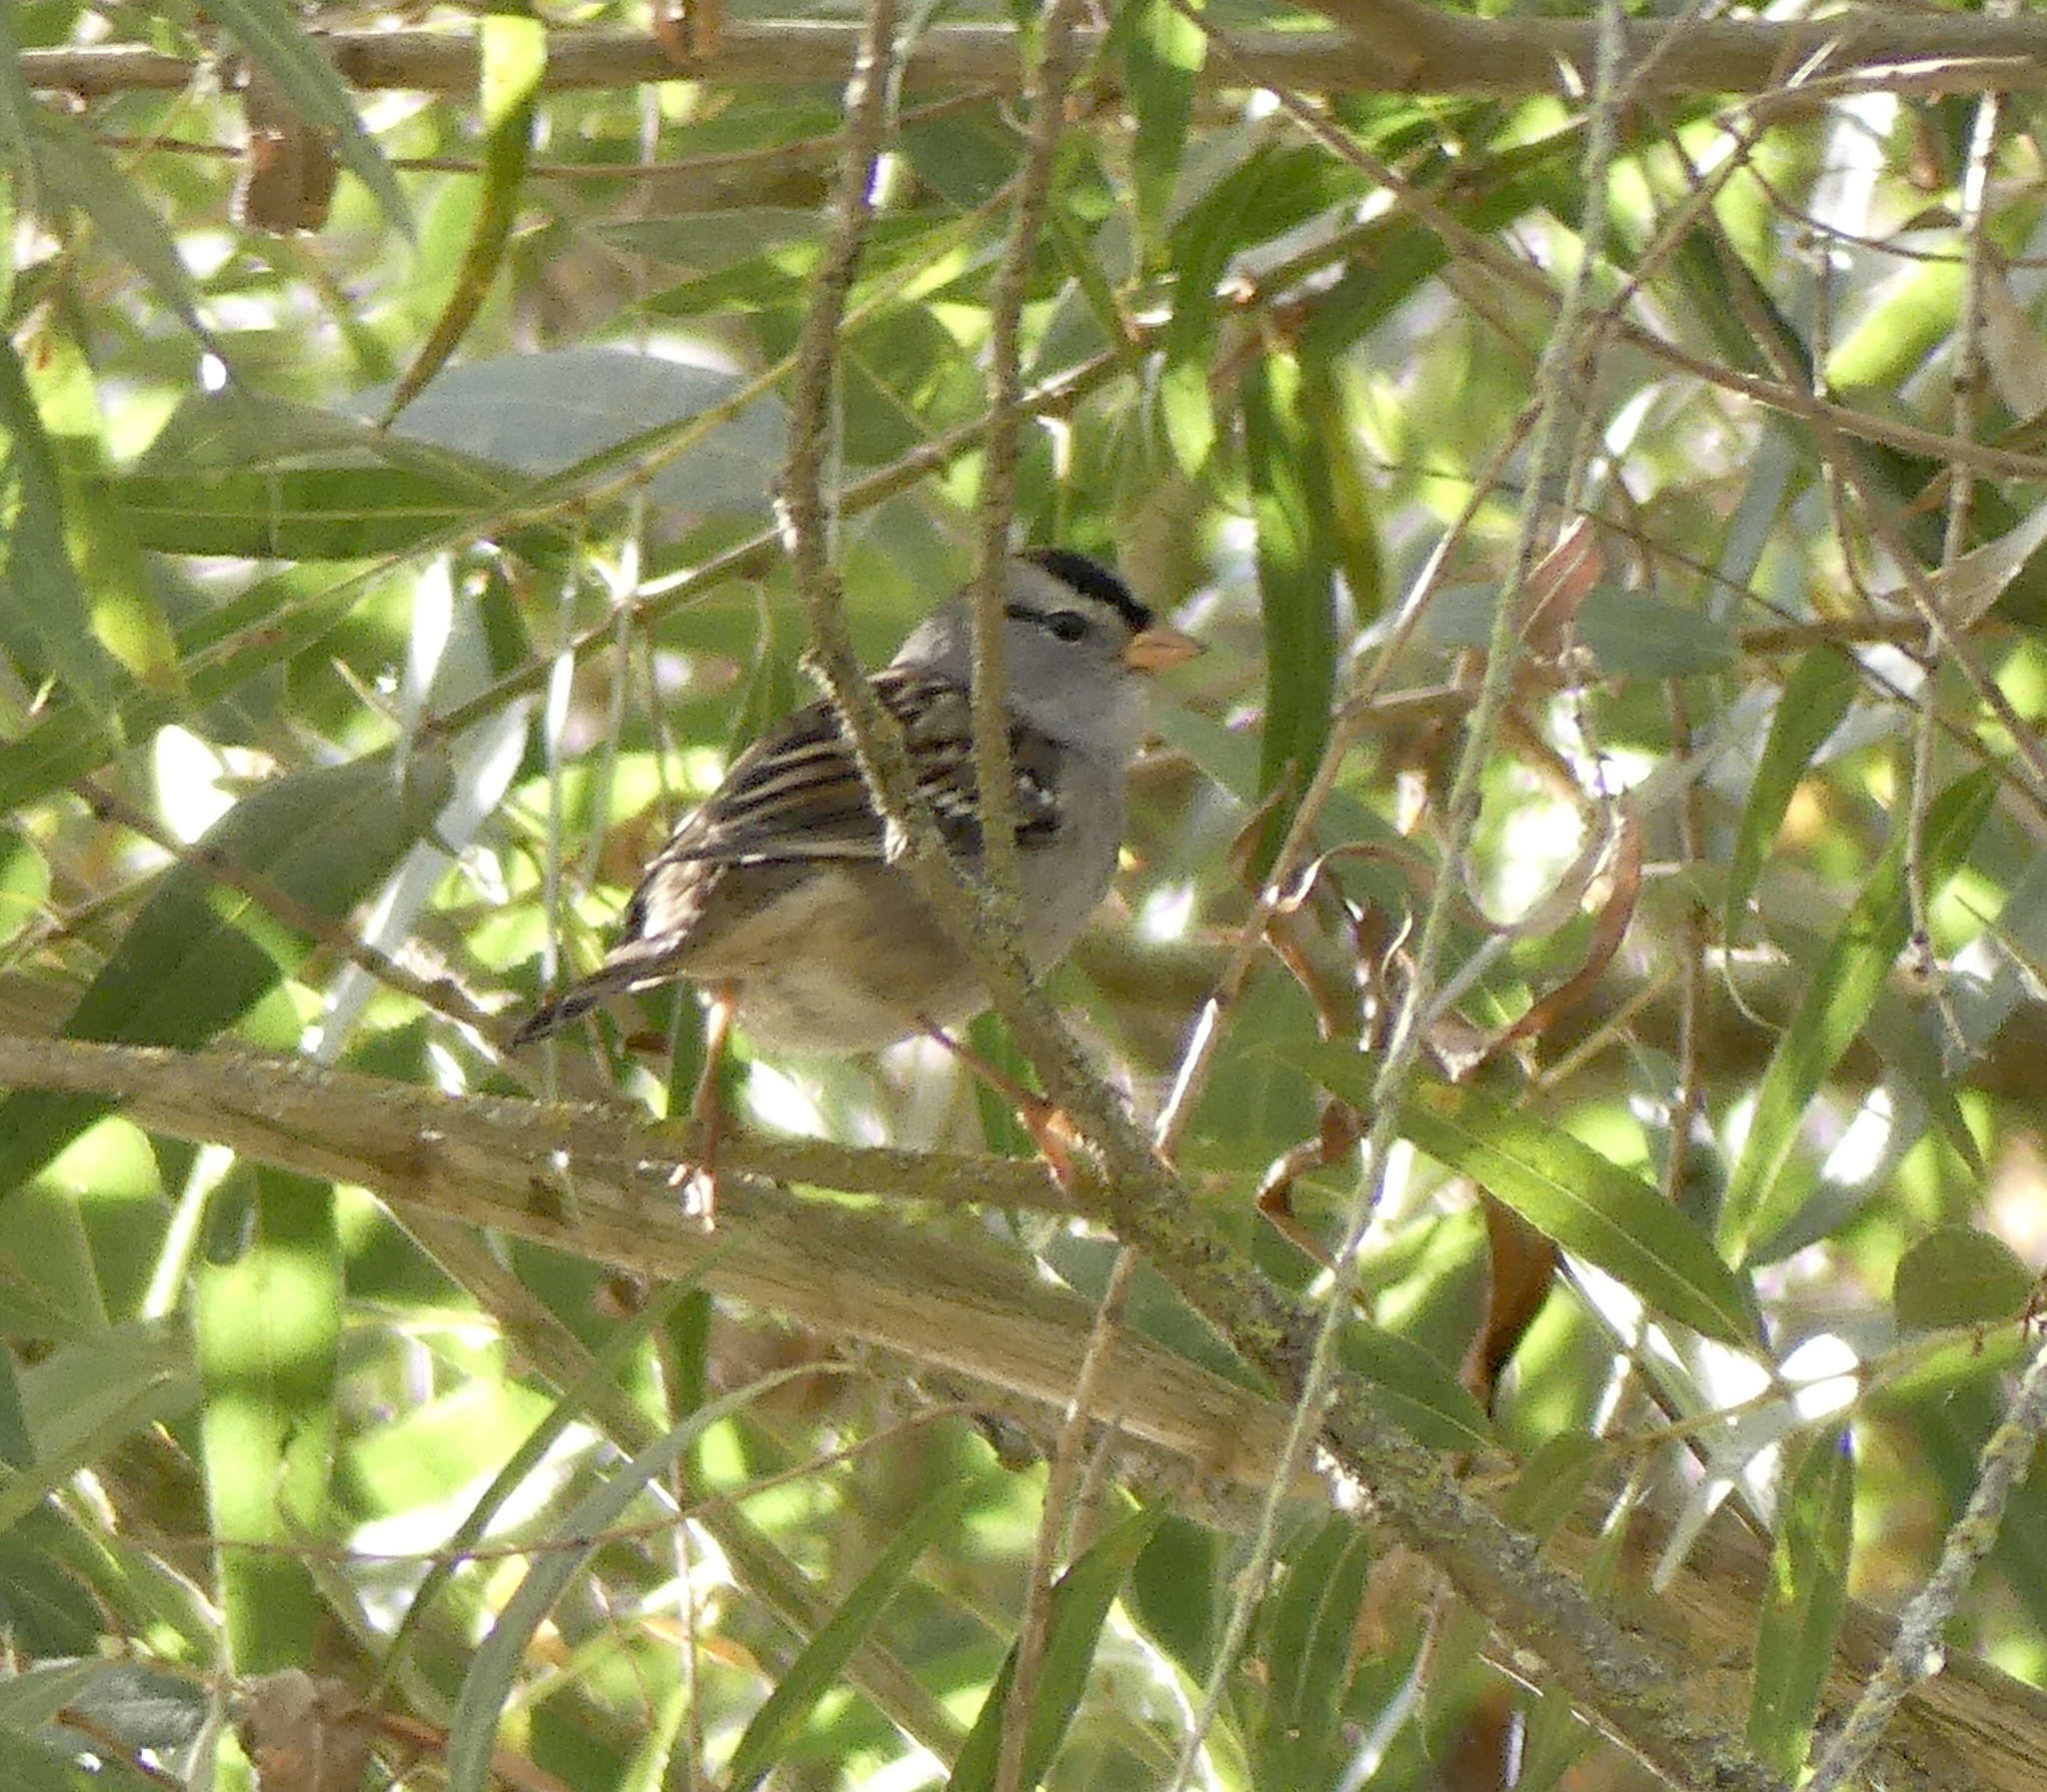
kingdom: Animalia
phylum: Chordata
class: Aves
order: Passeriformes
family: Passerellidae
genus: Zonotrichia
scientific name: Zonotrichia leucophrys
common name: White-crowned sparrow
